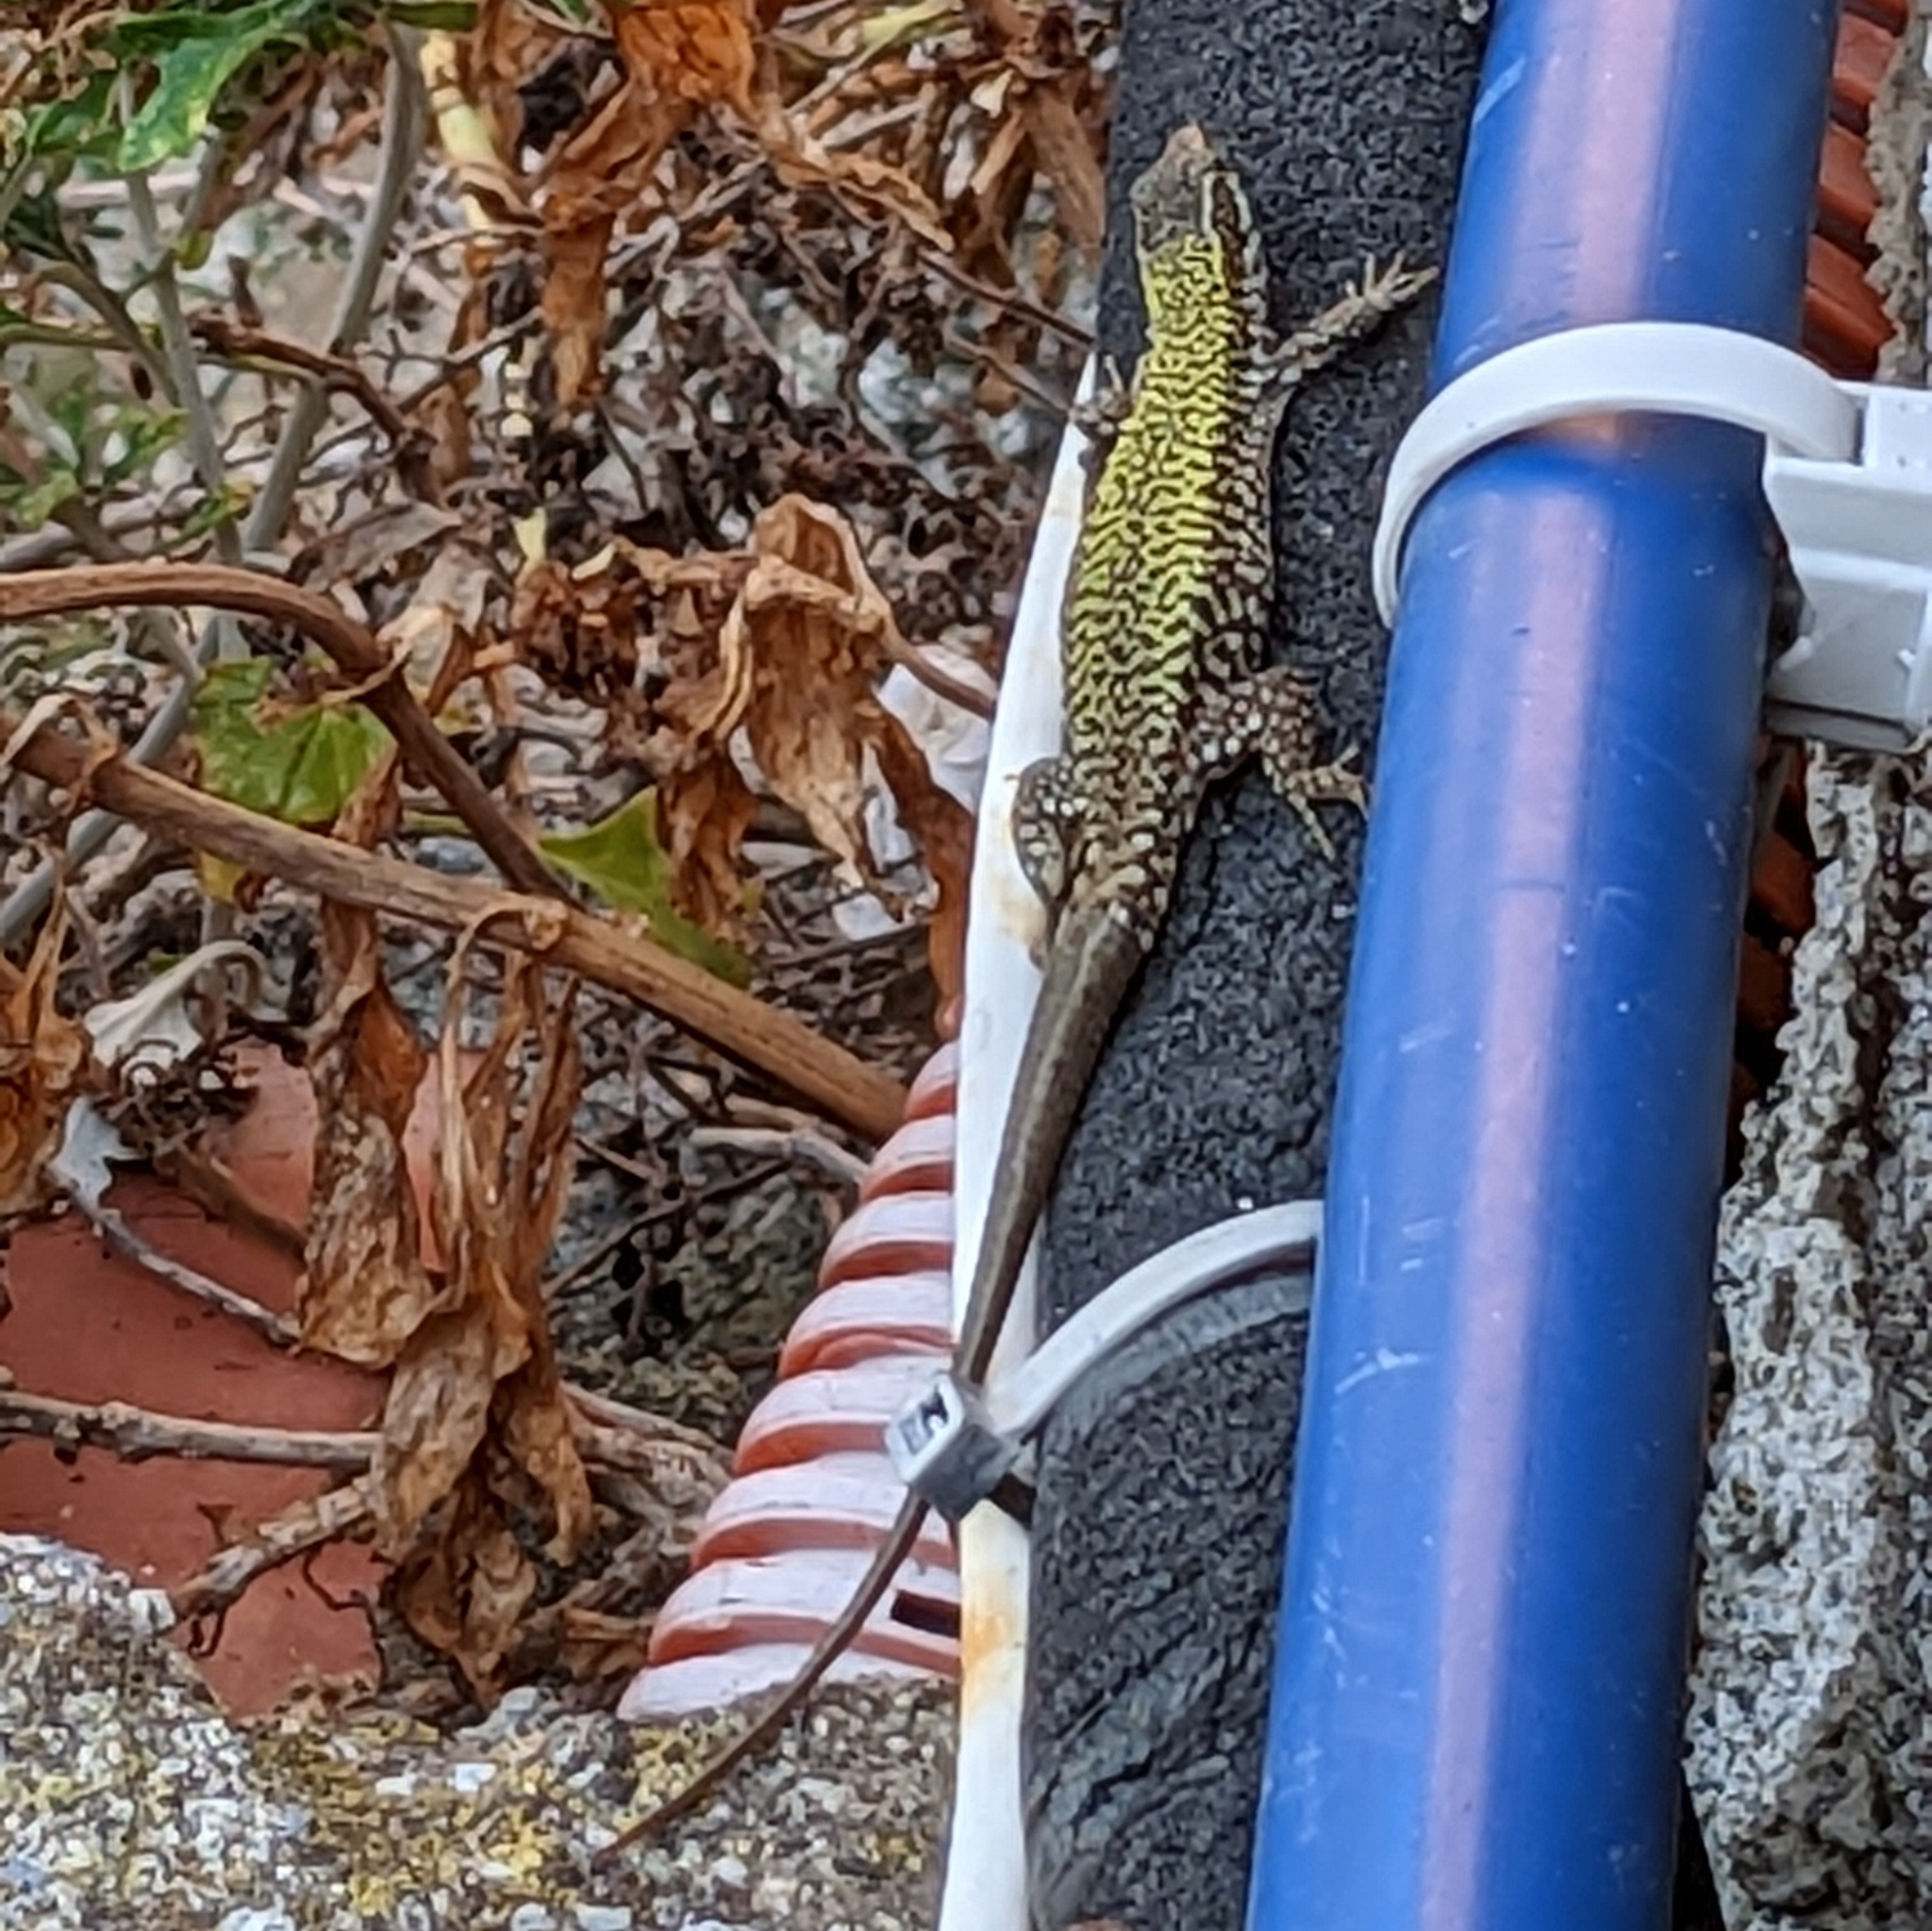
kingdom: Animalia
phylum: Chordata
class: Squamata
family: Lacertidae
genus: Podarcis
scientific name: Podarcis muralis
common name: Common wall lizard
